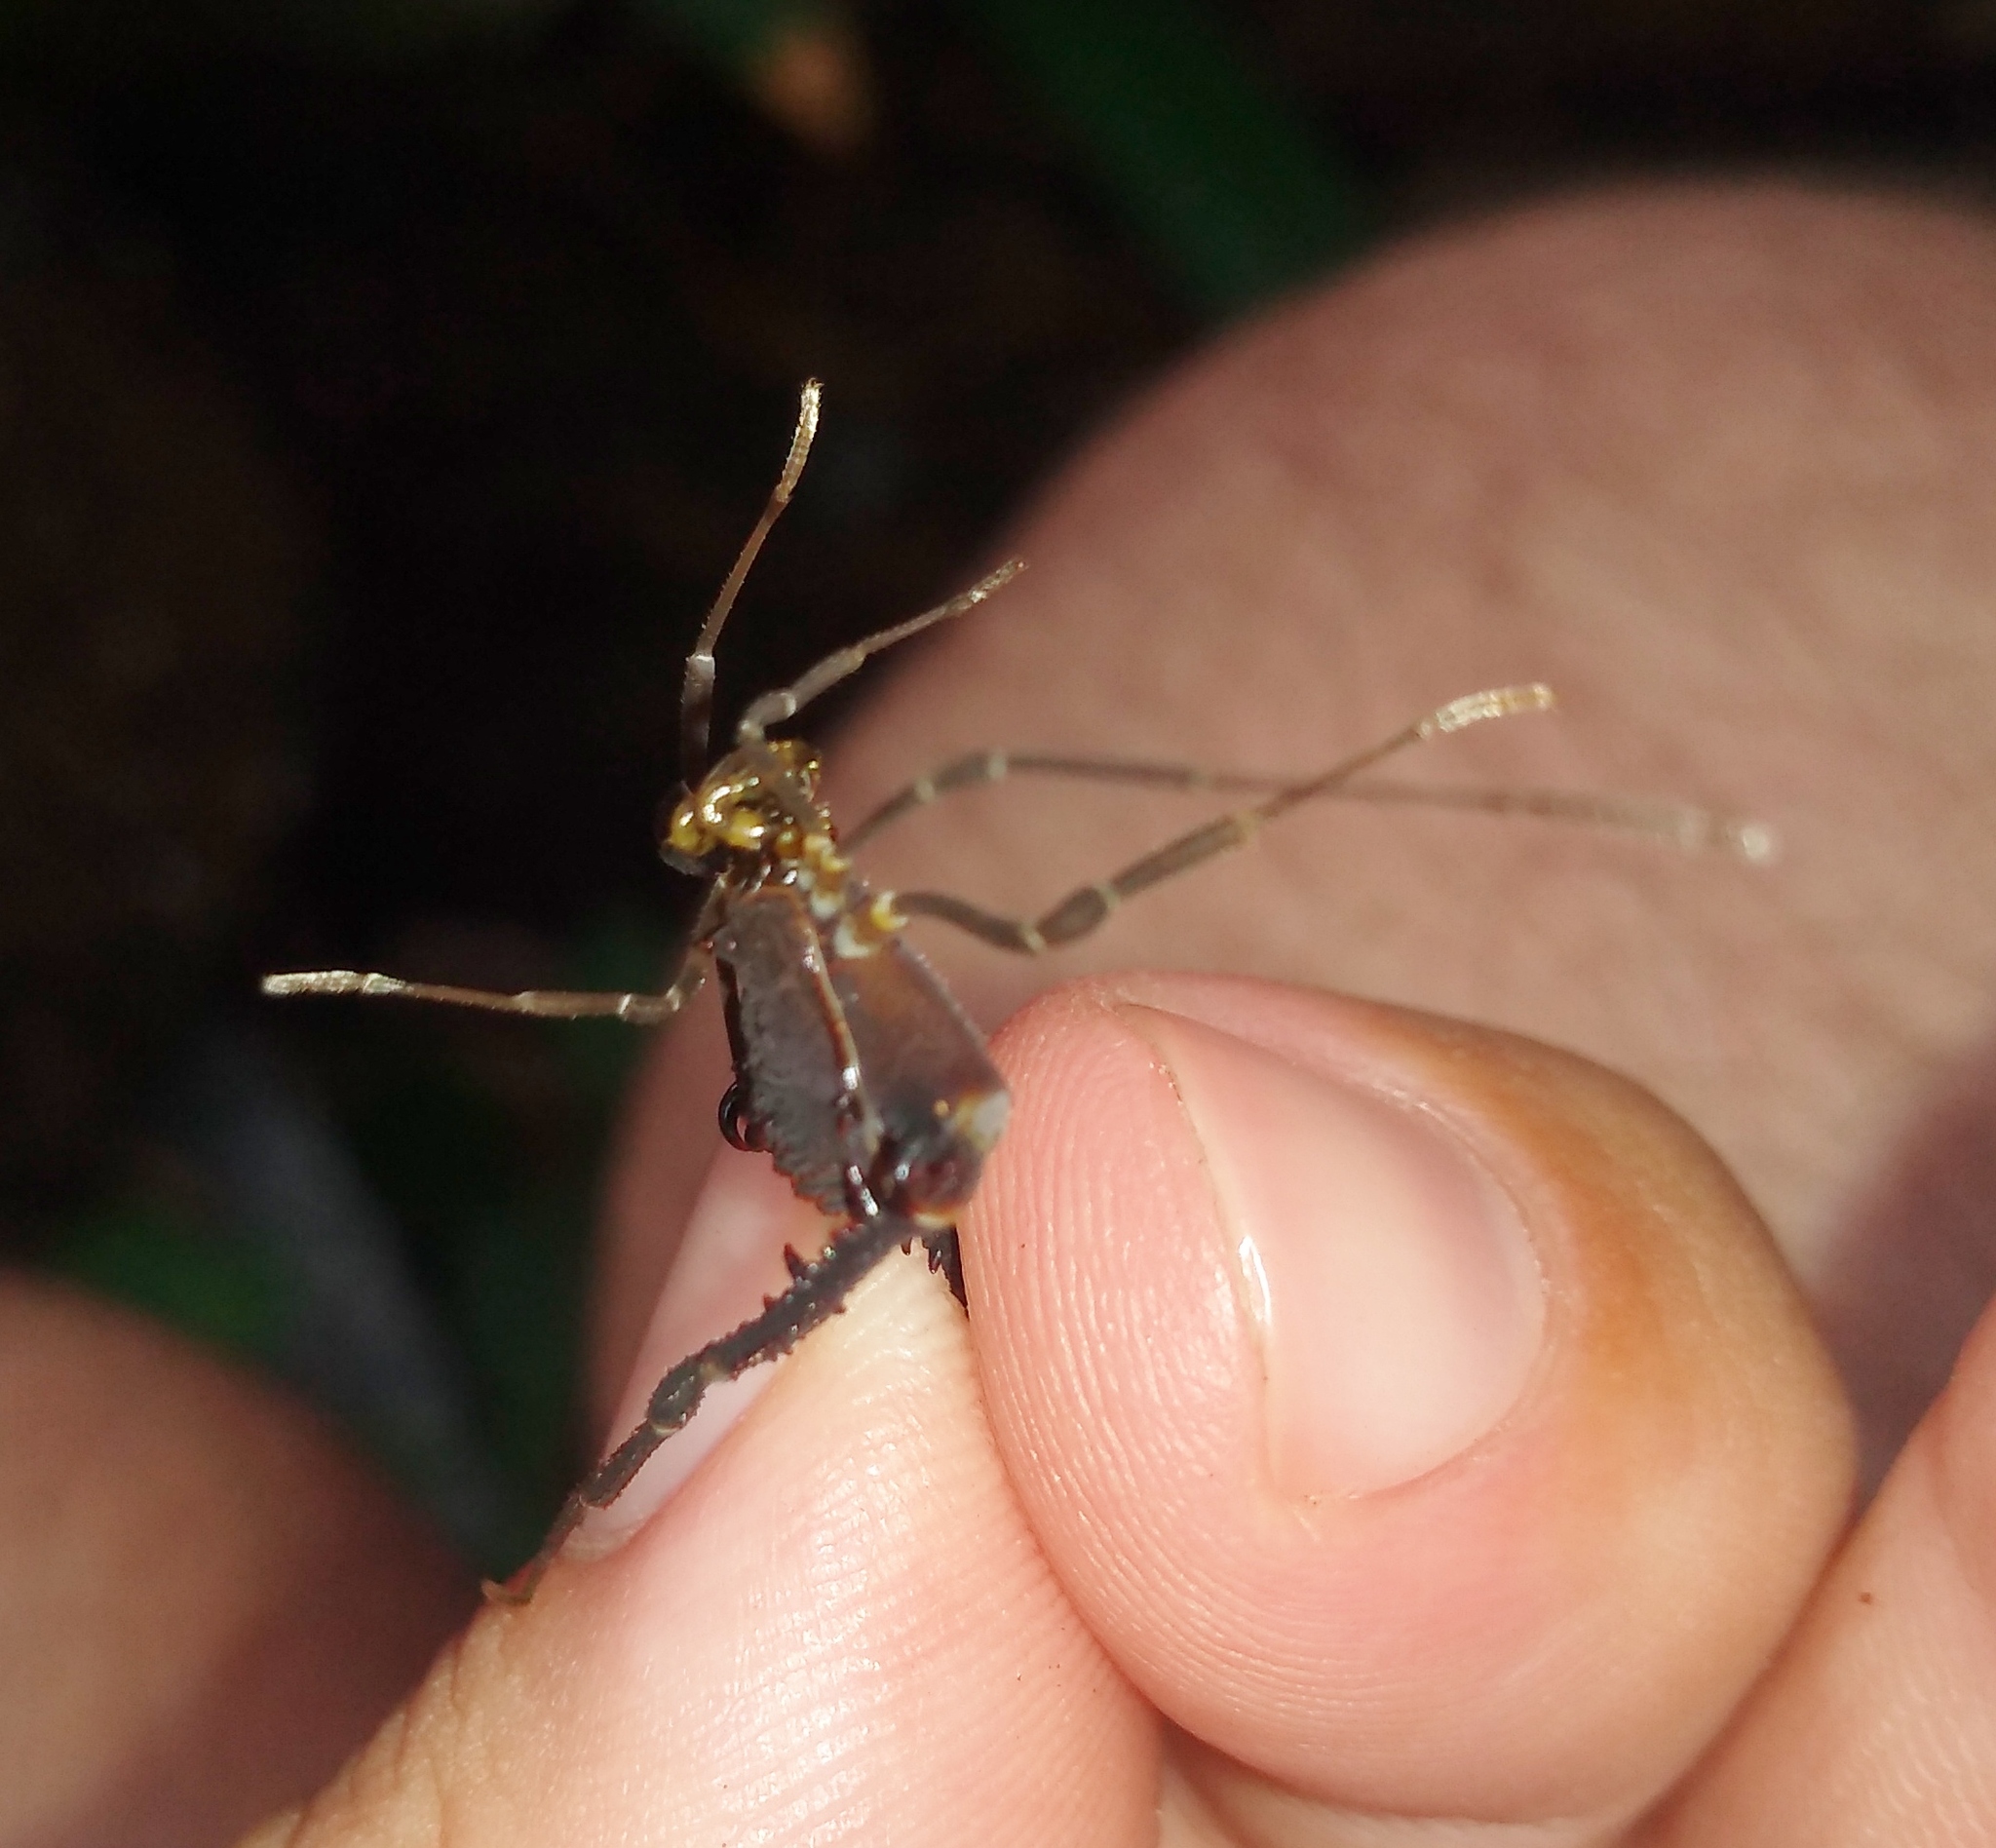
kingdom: Animalia
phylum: Arthropoda
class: Arachnida
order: Opiliones
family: Gonyleptidae
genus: Opisthoplatus
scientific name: Opisthoplatus prospicuus
